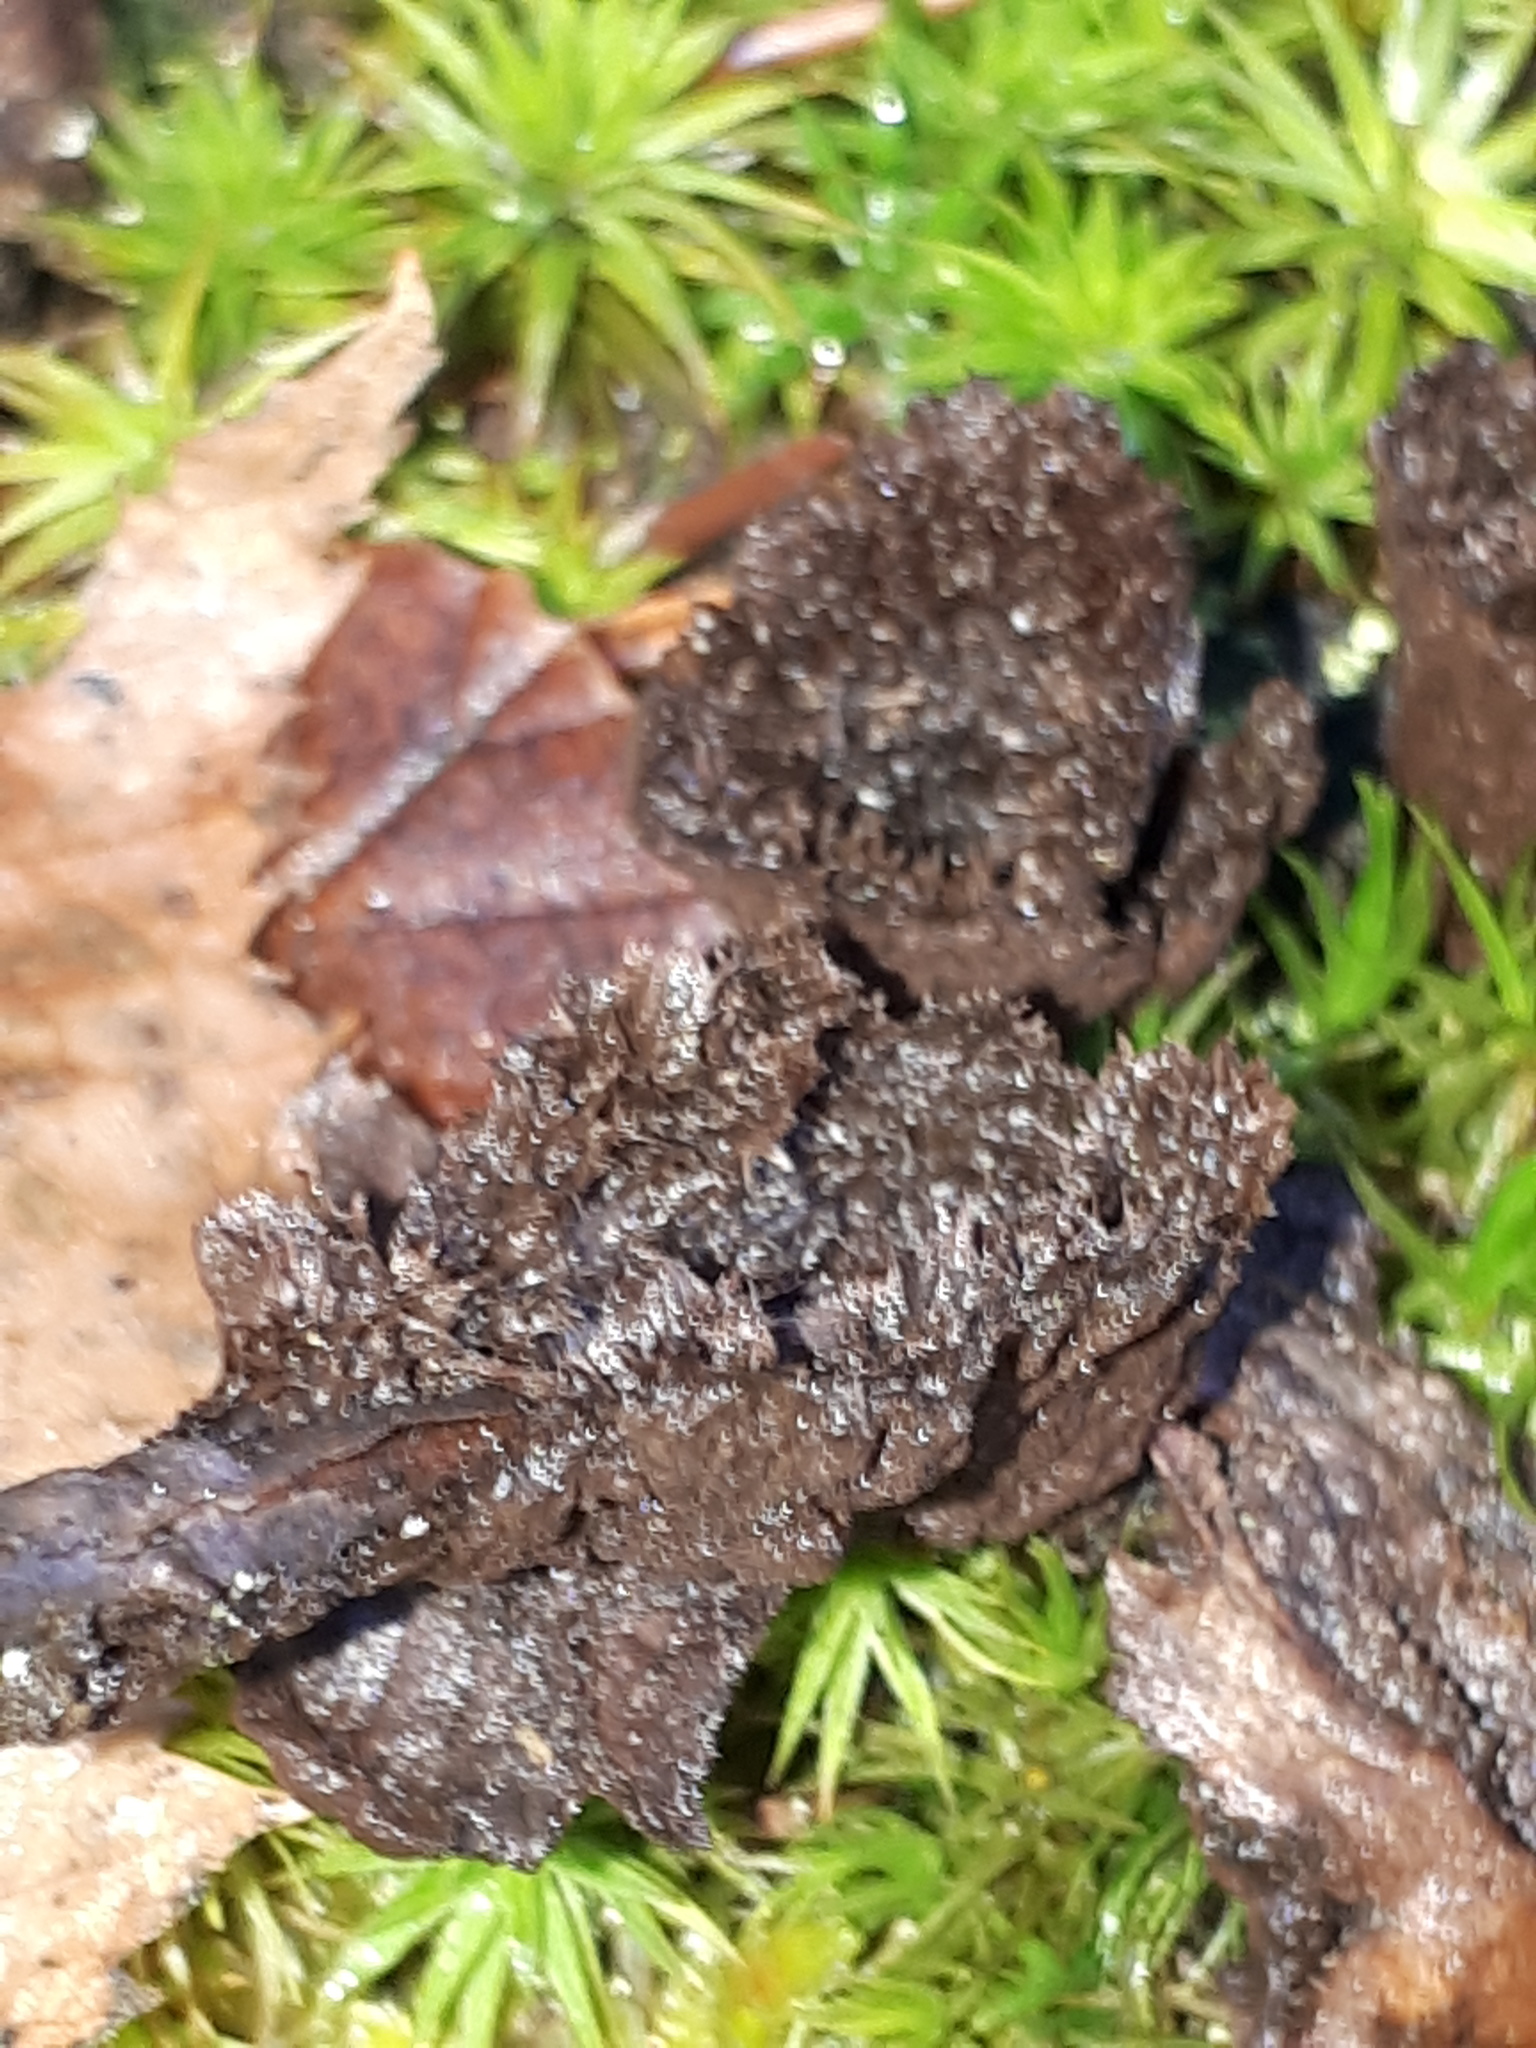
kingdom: Fungi
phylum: Basidiomycota
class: Agaricomycetes
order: Thelephorales
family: Thelephoraceae
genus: Thelephora
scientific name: Thelephora terrestris
